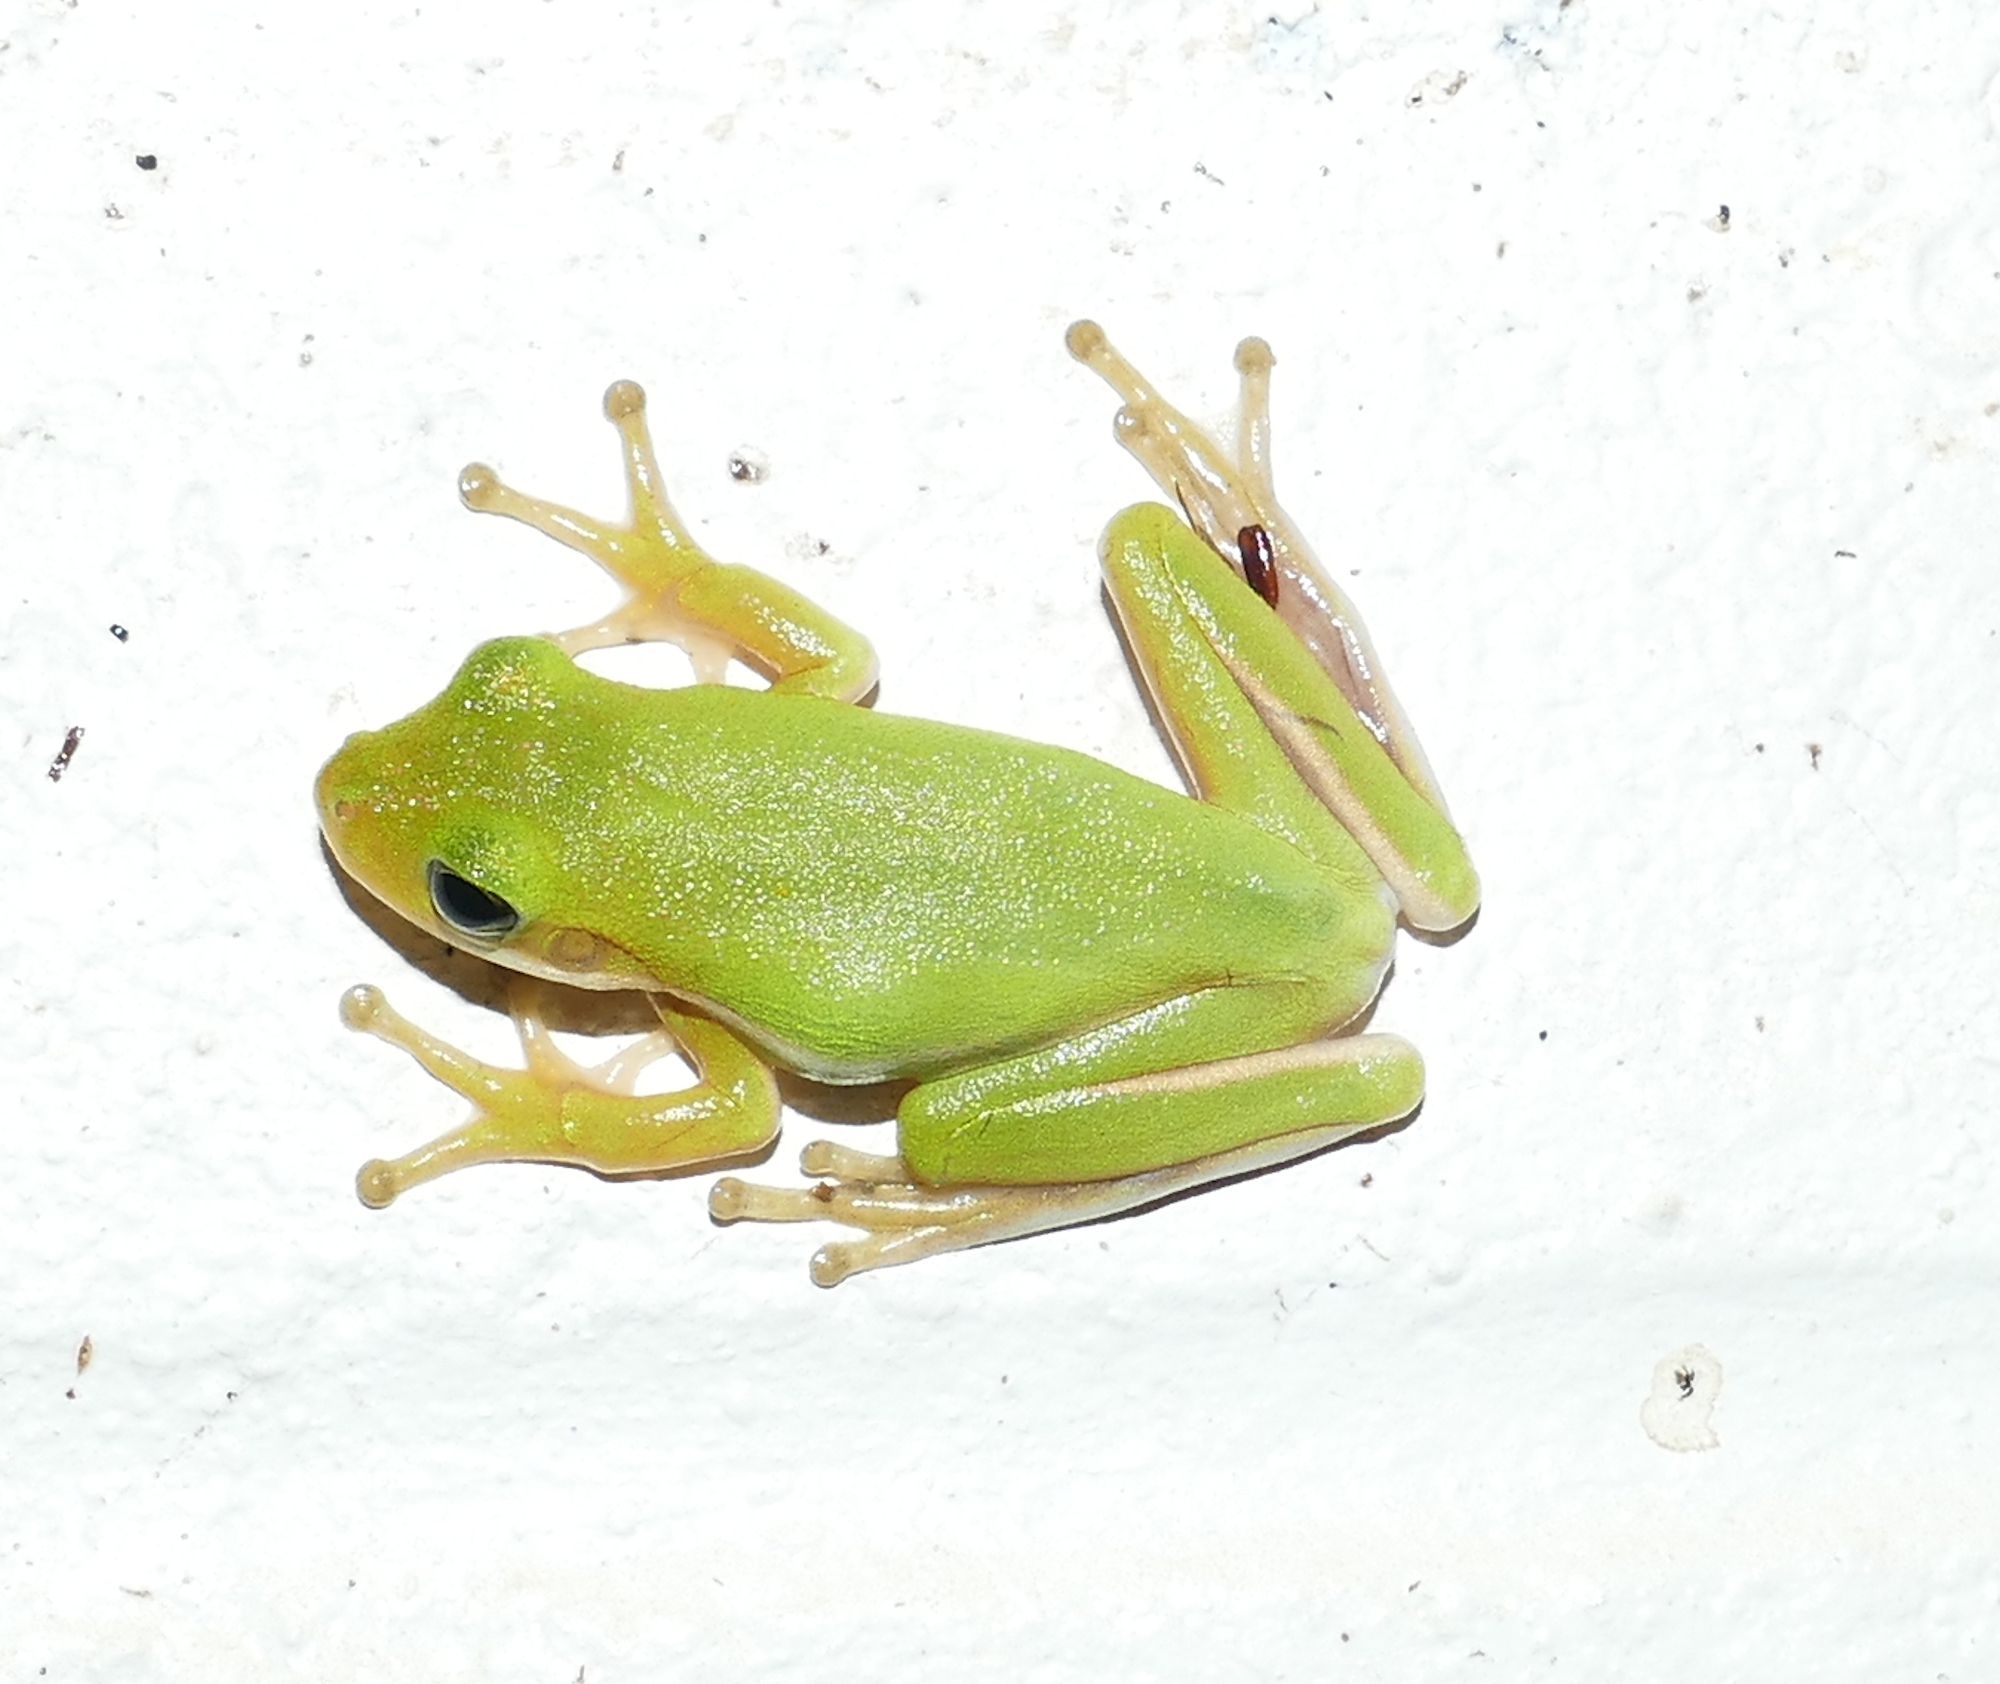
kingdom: Animalia
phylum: Chordata
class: Amphibia
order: Anura
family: Hylidae
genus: Dryophytes
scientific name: Dryophytes cinereus
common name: Green treefrog
